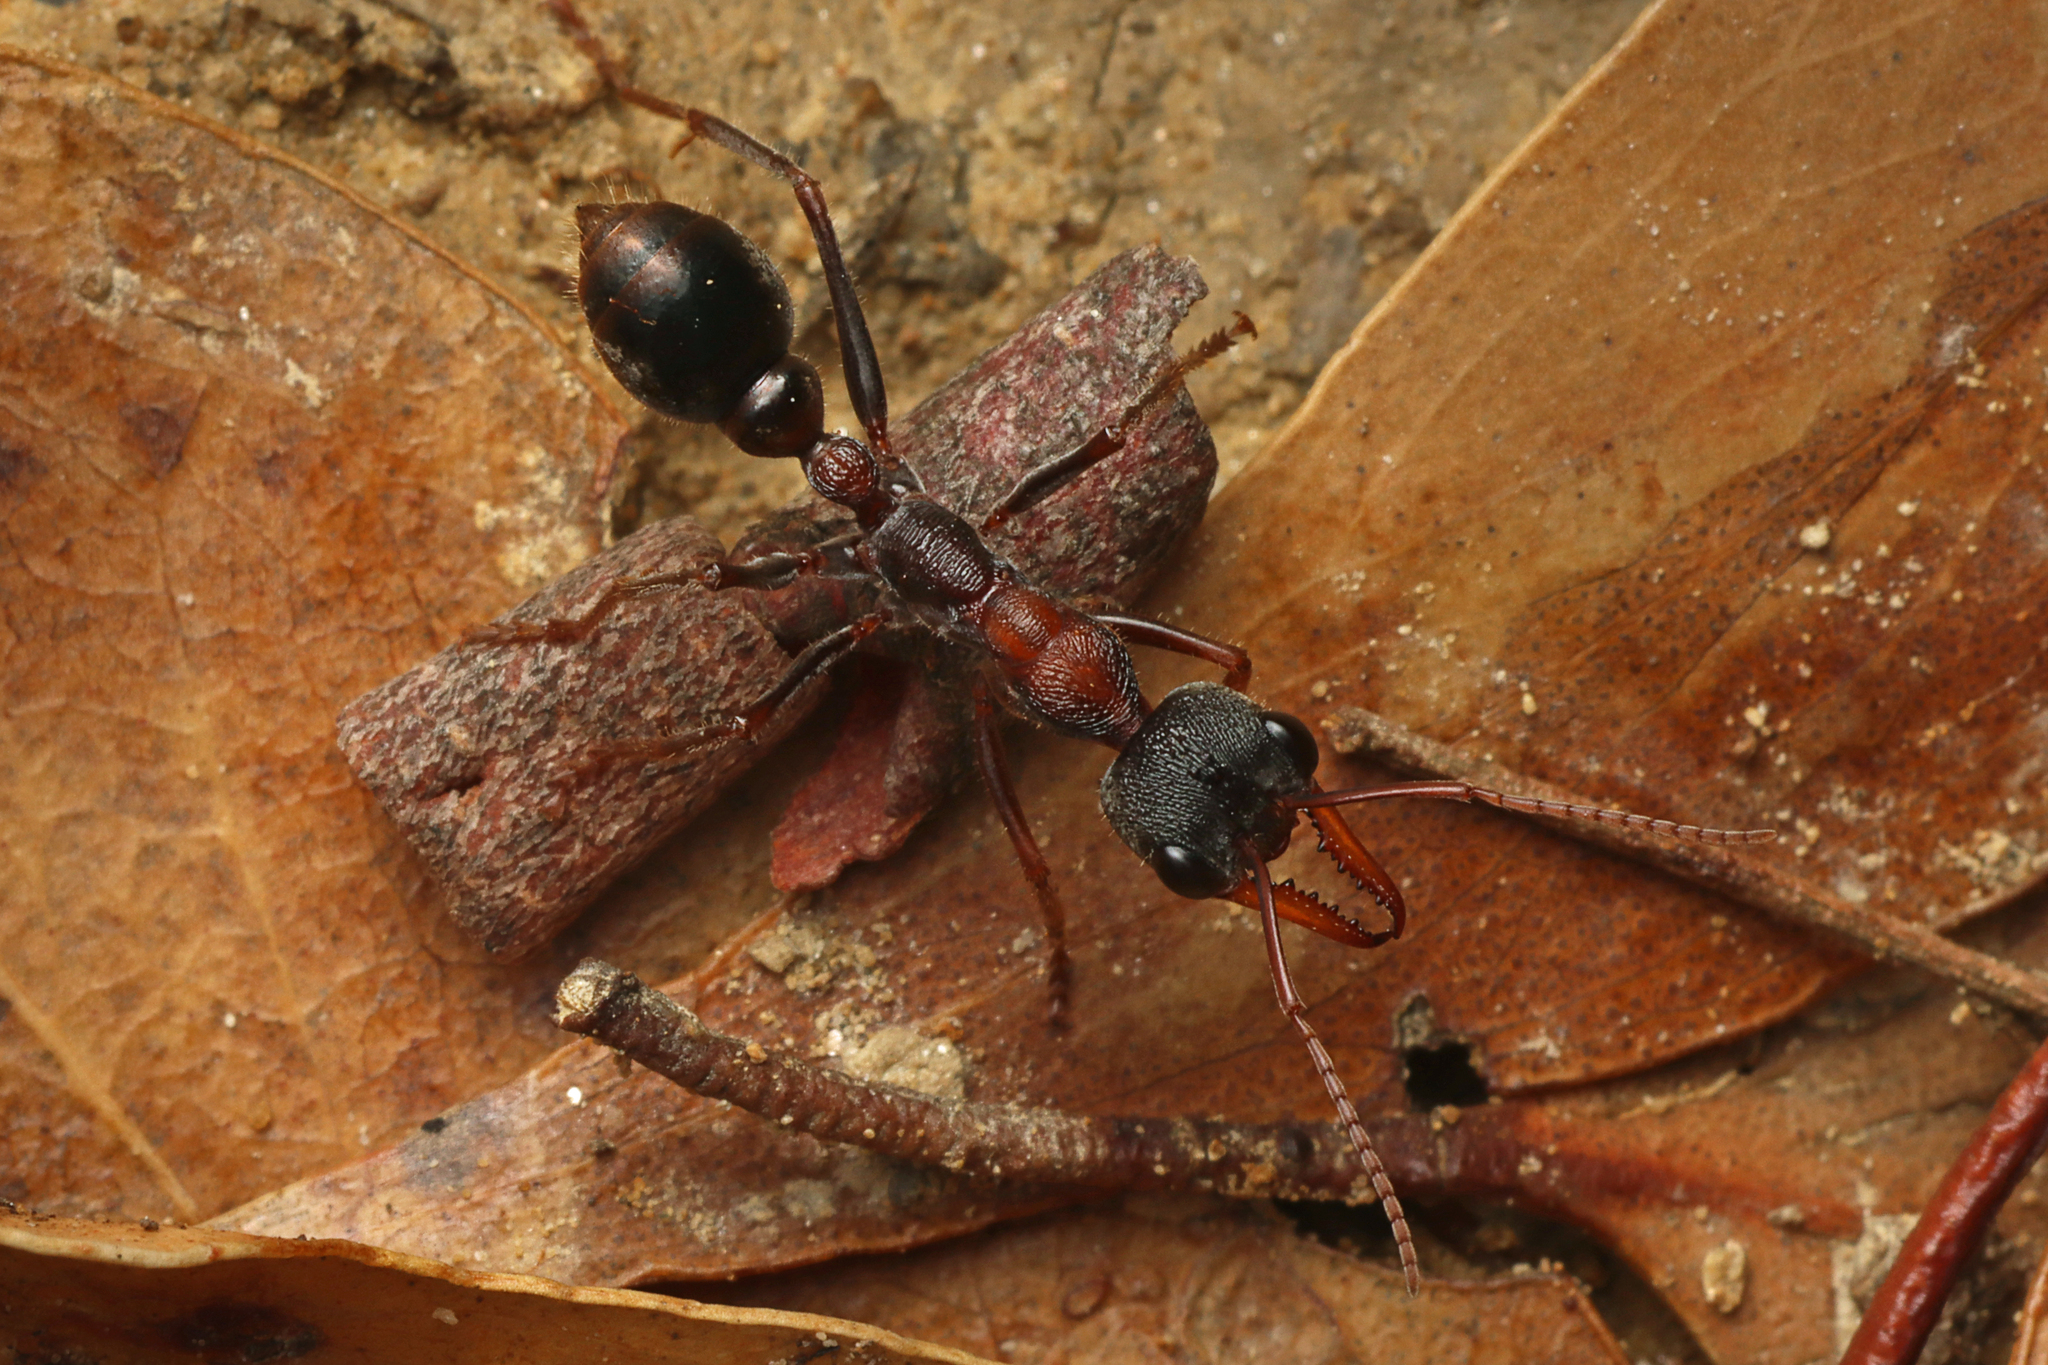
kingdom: Animalia
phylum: Arthropoda
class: Insecta
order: Hymenoptera
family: Formicidae
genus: Myrmecia
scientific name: Myrmecia pulchra
